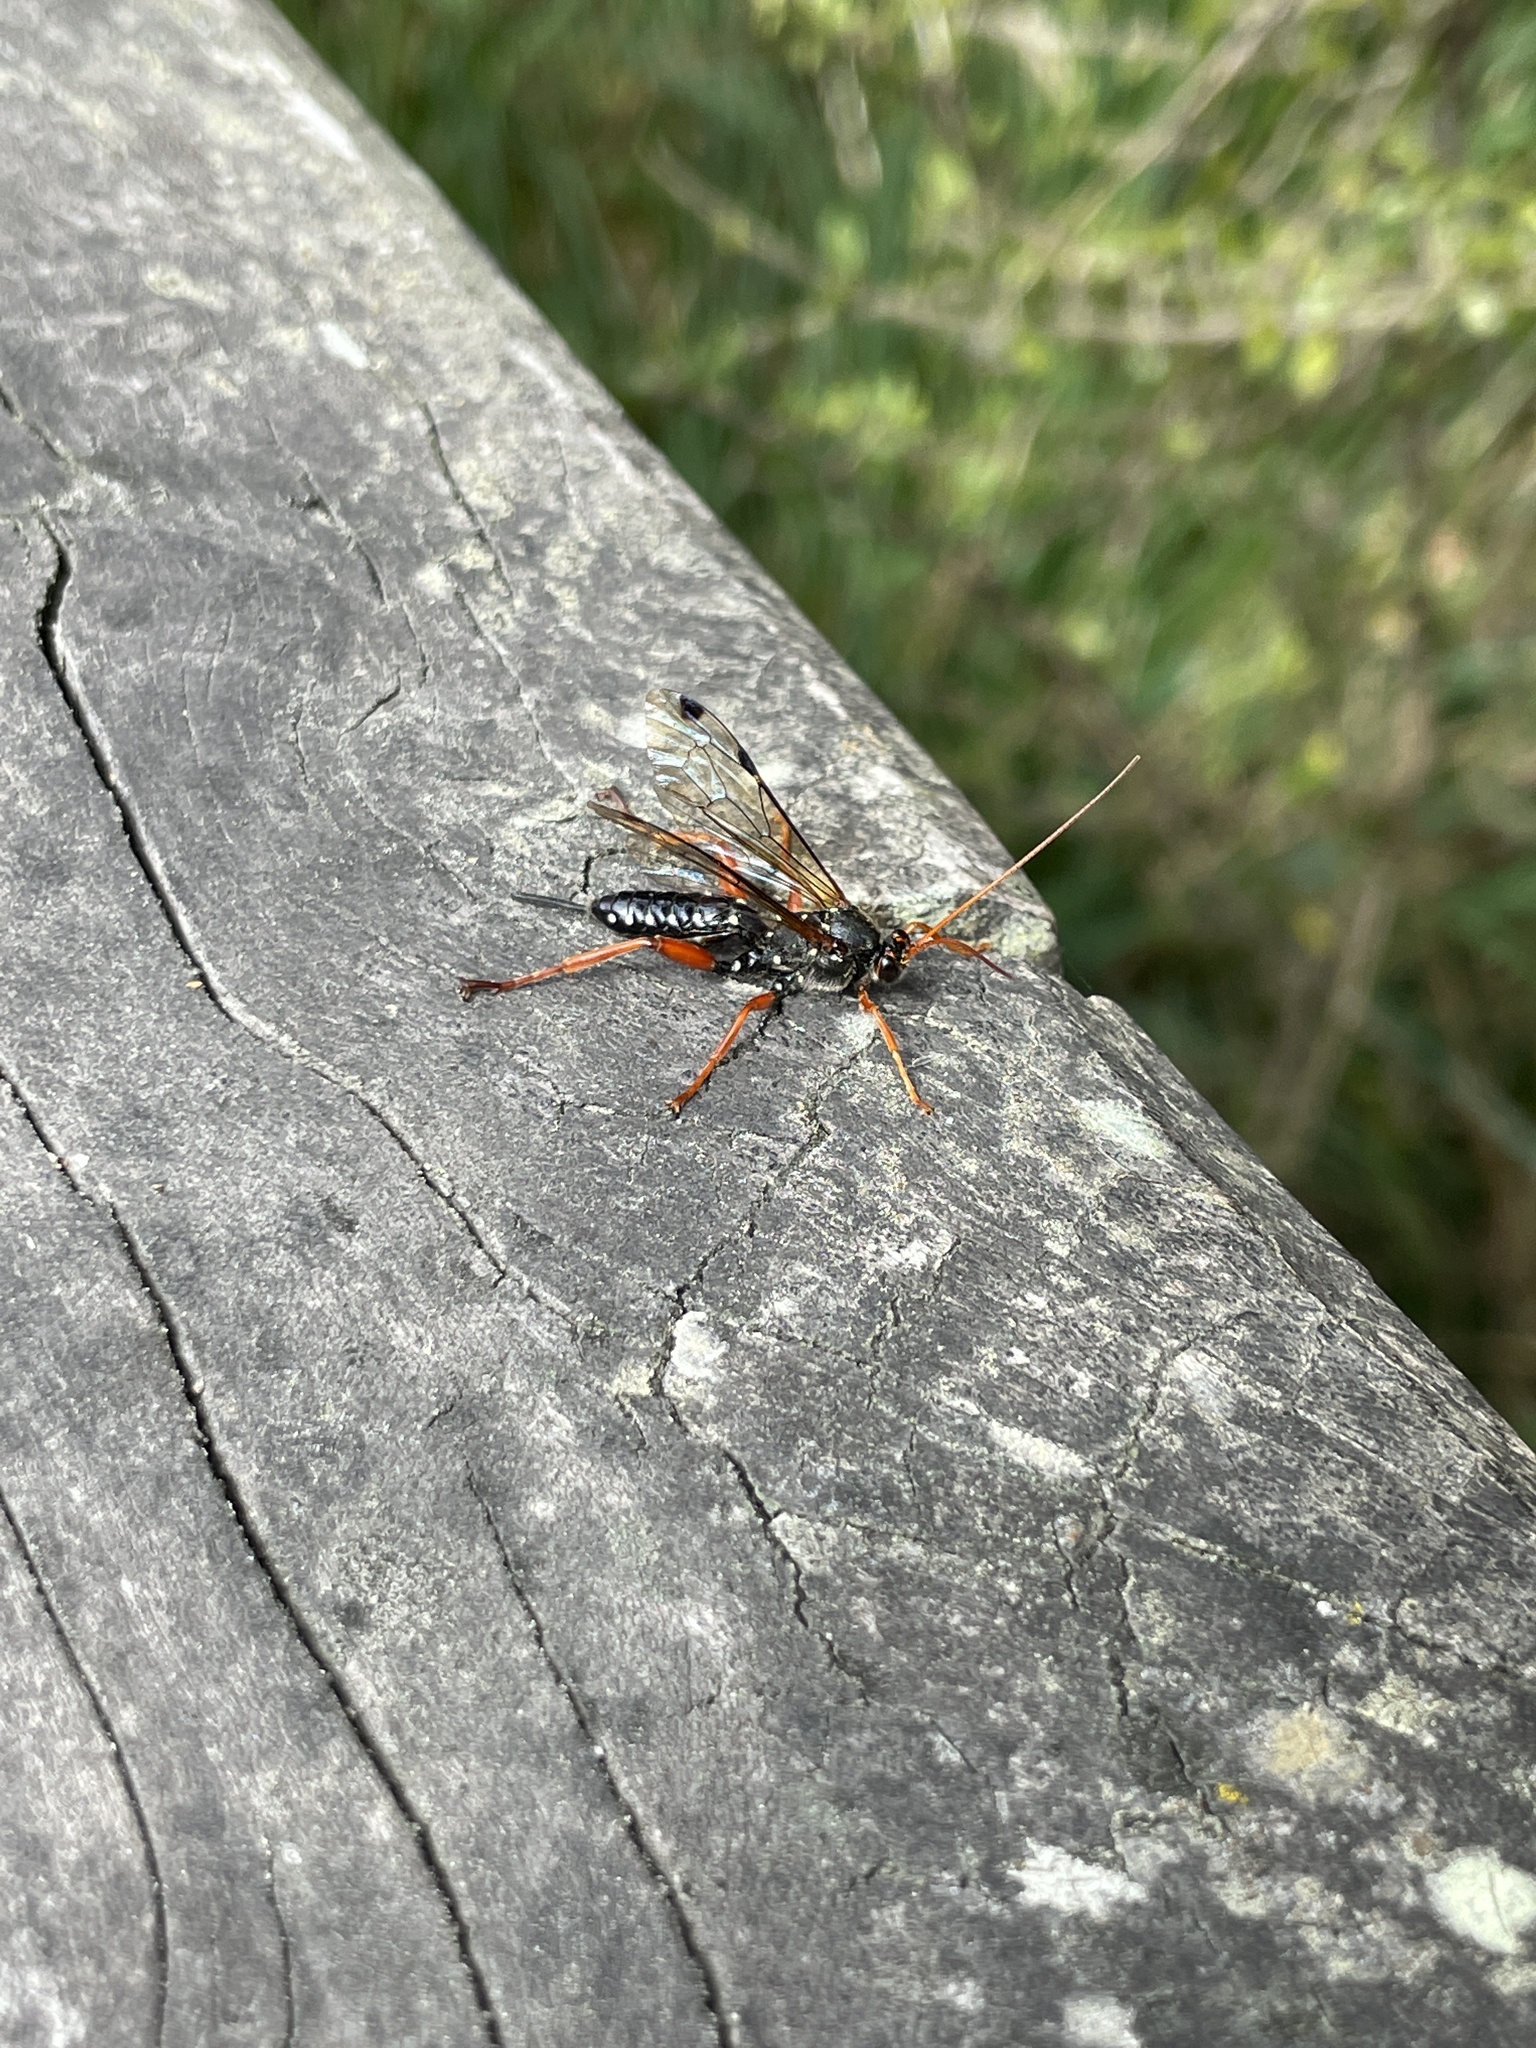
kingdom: Animalia
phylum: Arthropoda
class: Insecta
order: Hymenoptera
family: Ichneumonidae
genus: Echthromorpha
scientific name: Echthromorpha intricatoria
